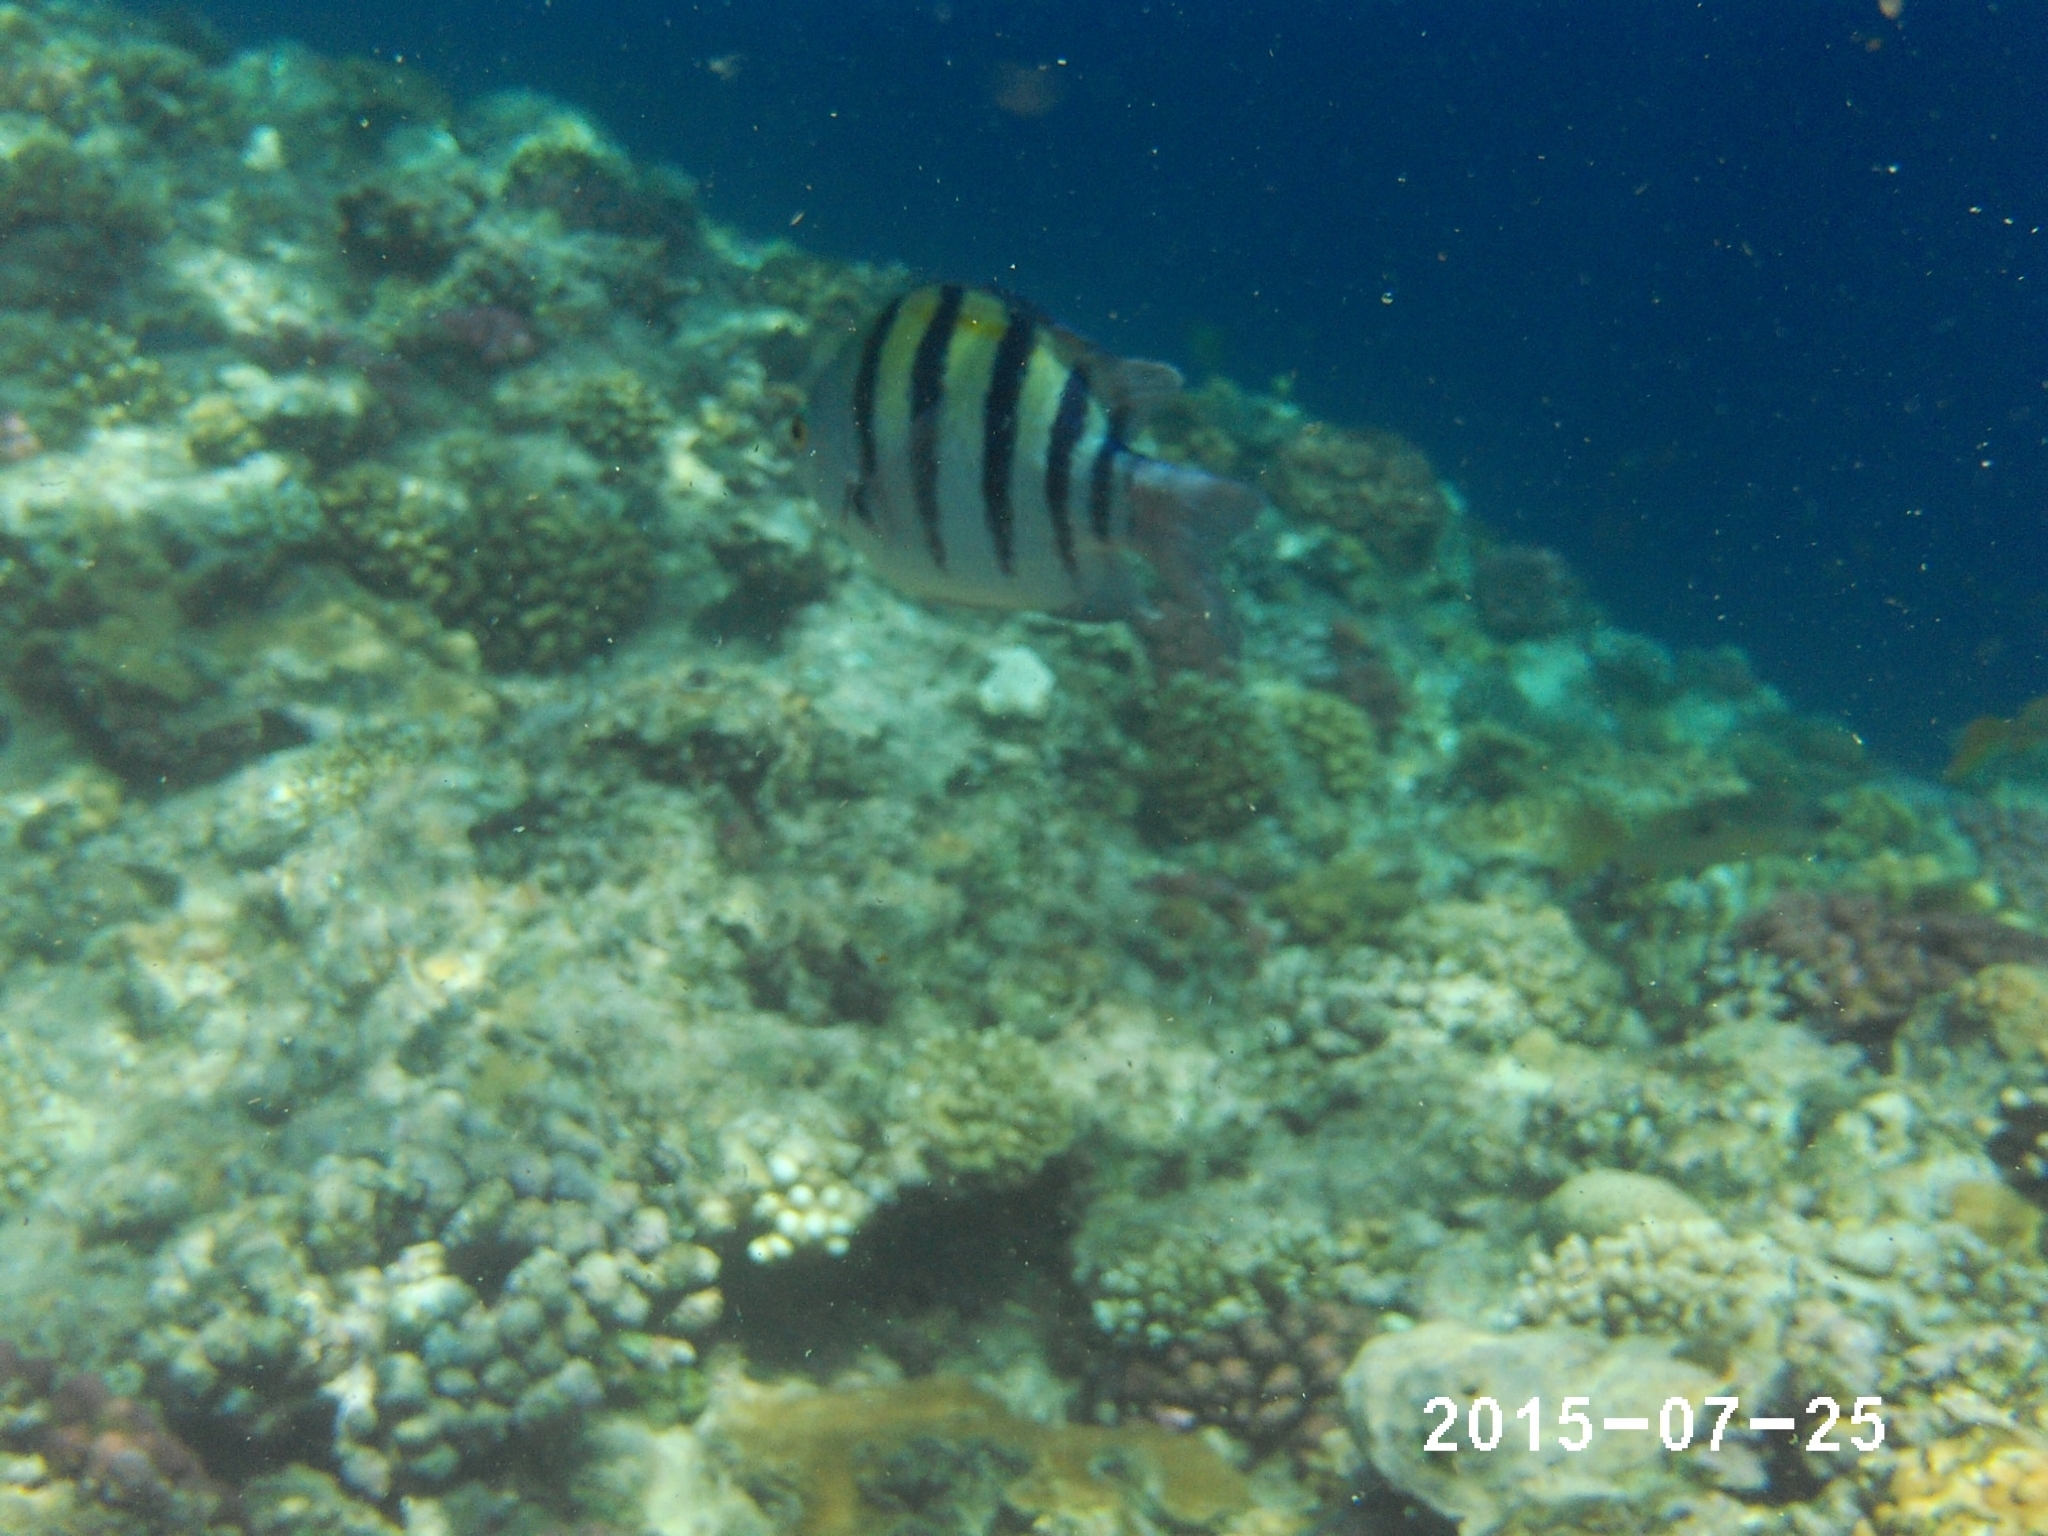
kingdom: Animalia
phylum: Chordata
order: Perciformes
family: Pomacentridae
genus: Abudefduf
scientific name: Abudefduf vaigiensis
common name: Indo-pacific sergeant
